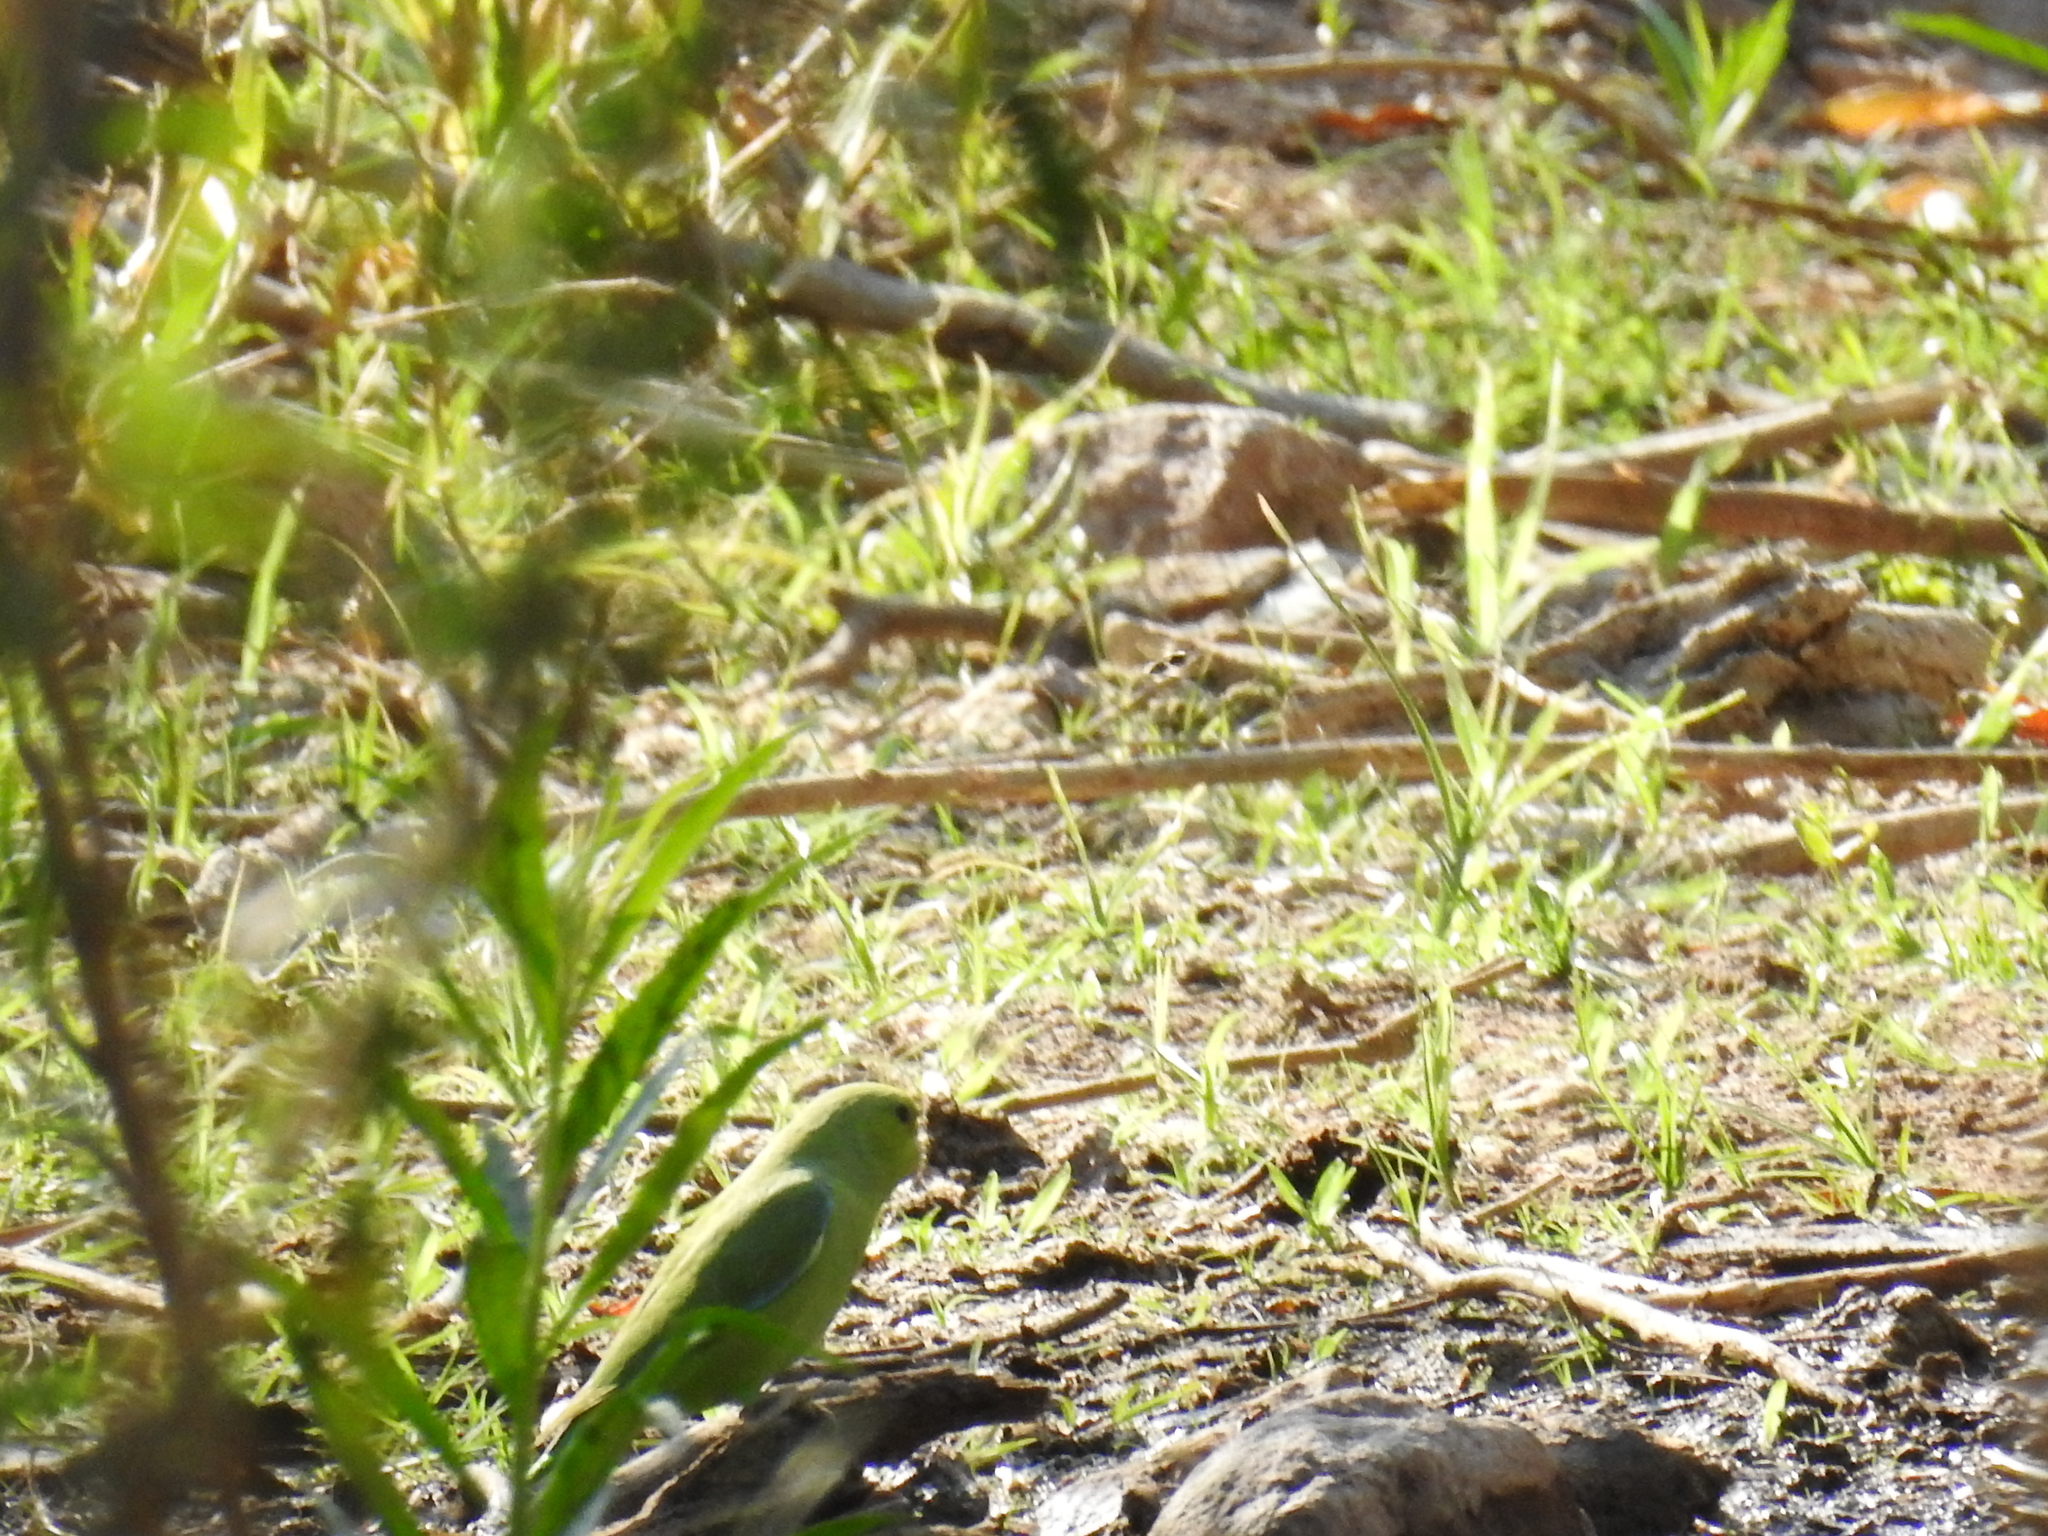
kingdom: Animalia
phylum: Chordata
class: Aves
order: Psittaciformes
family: Psittacidae
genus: Forpus
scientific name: Forpus cyanopygius
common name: Mexican parrotlet
